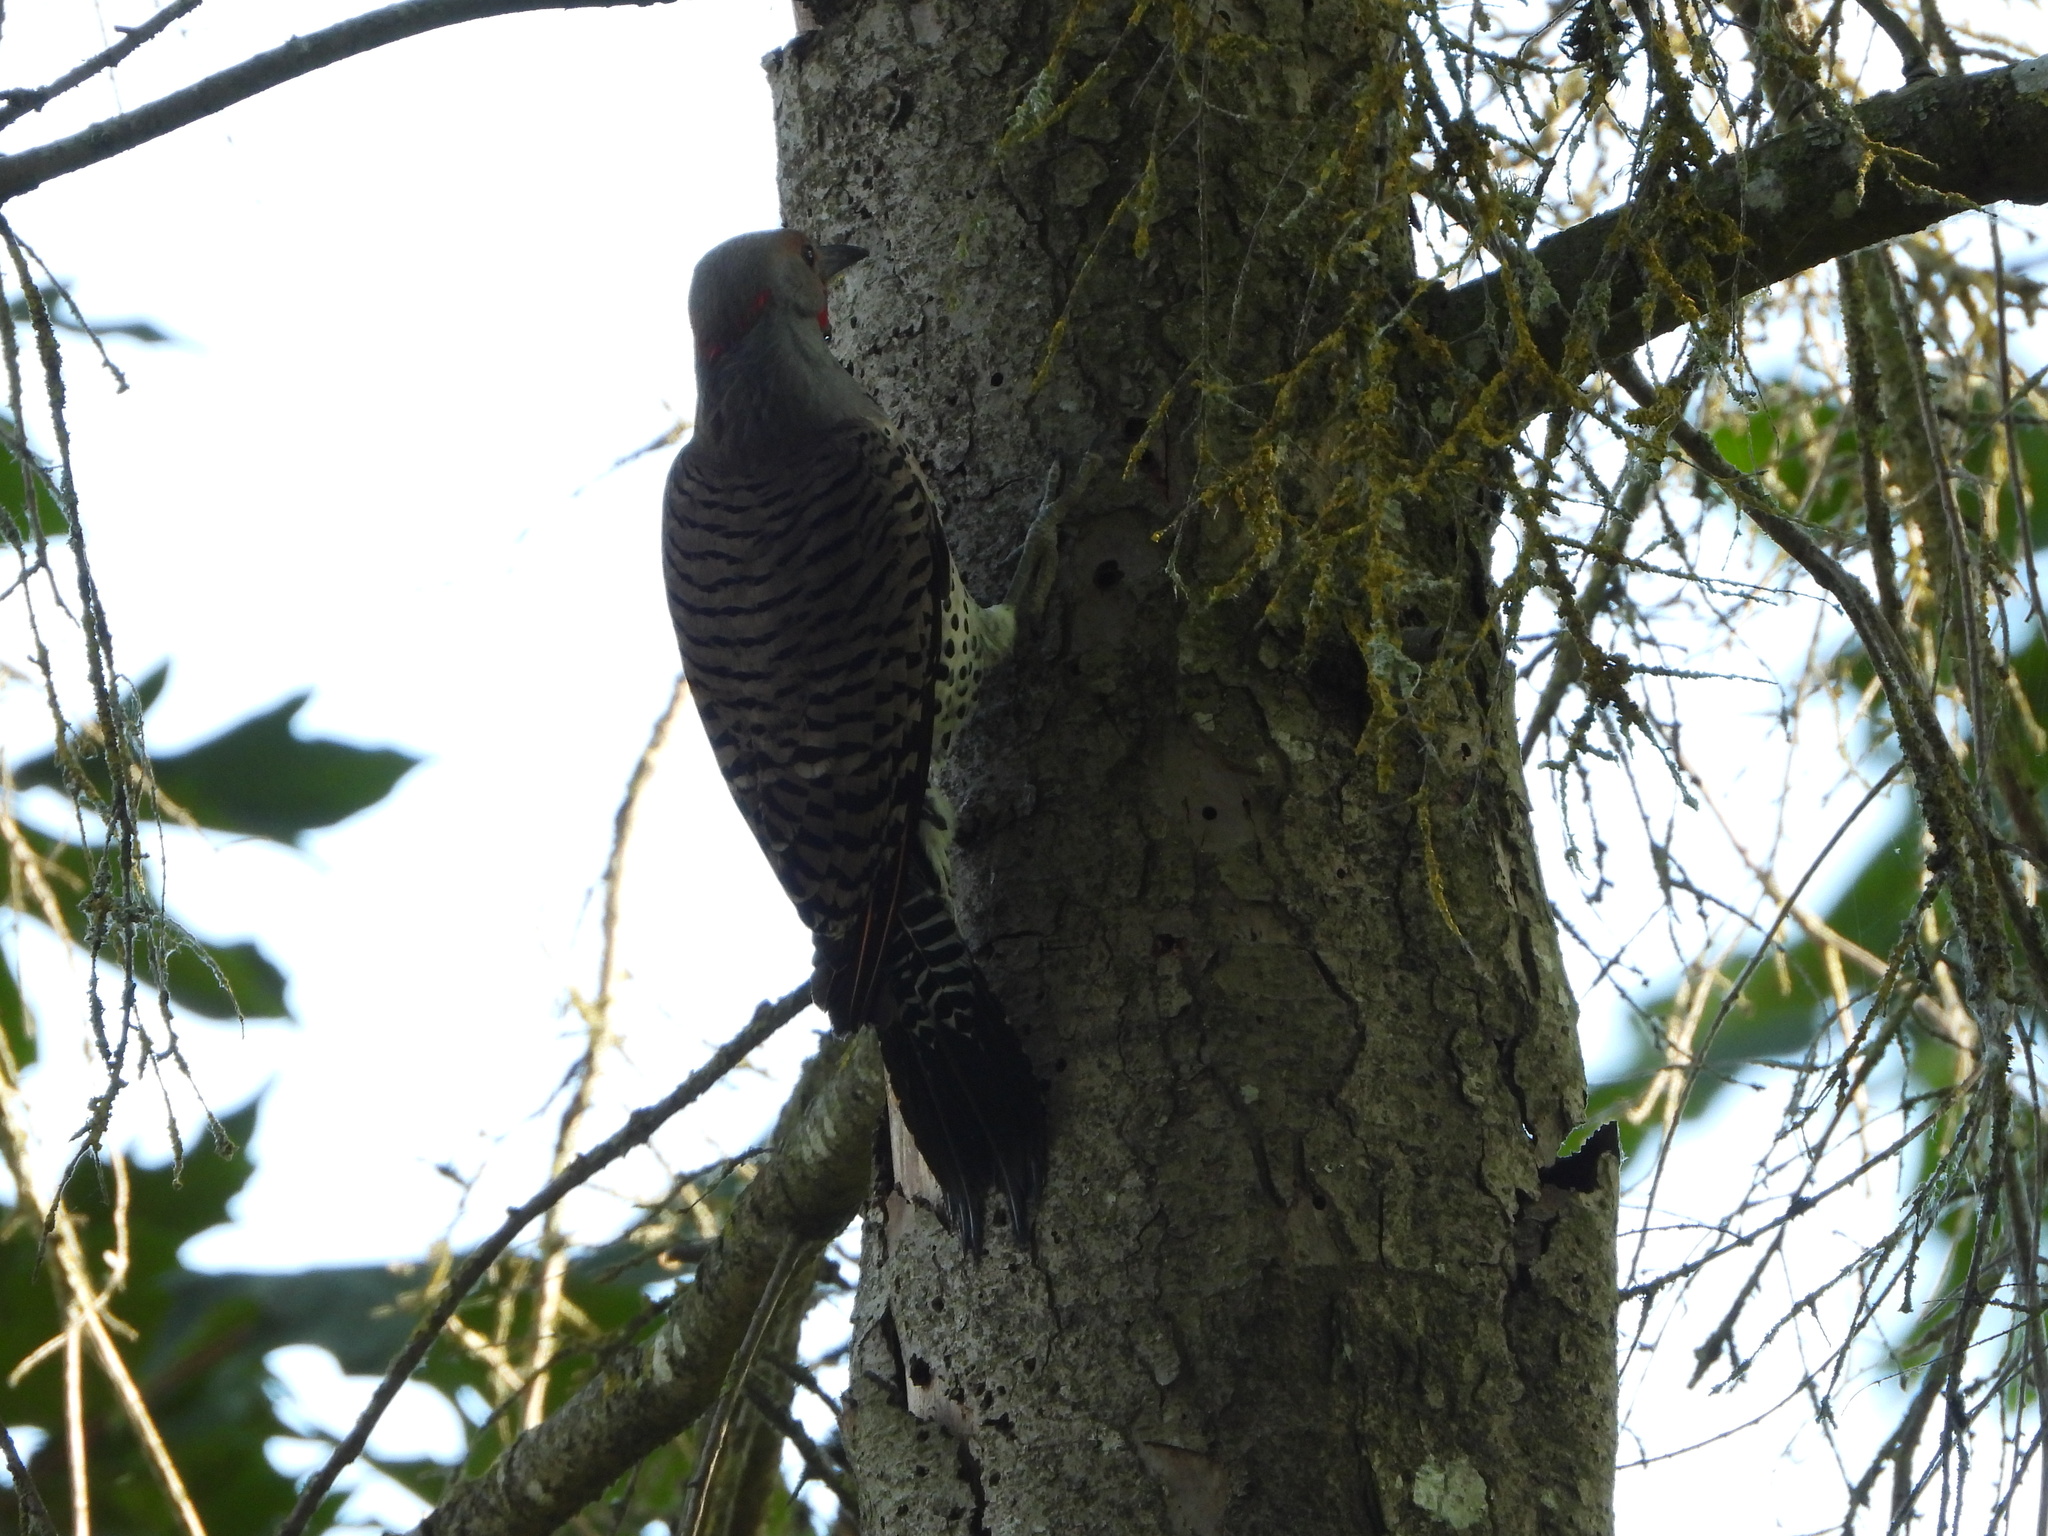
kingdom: Animalia
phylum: Chordata
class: Aves
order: Piciformes
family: Picidae
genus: Colaptes
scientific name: Colaptes
